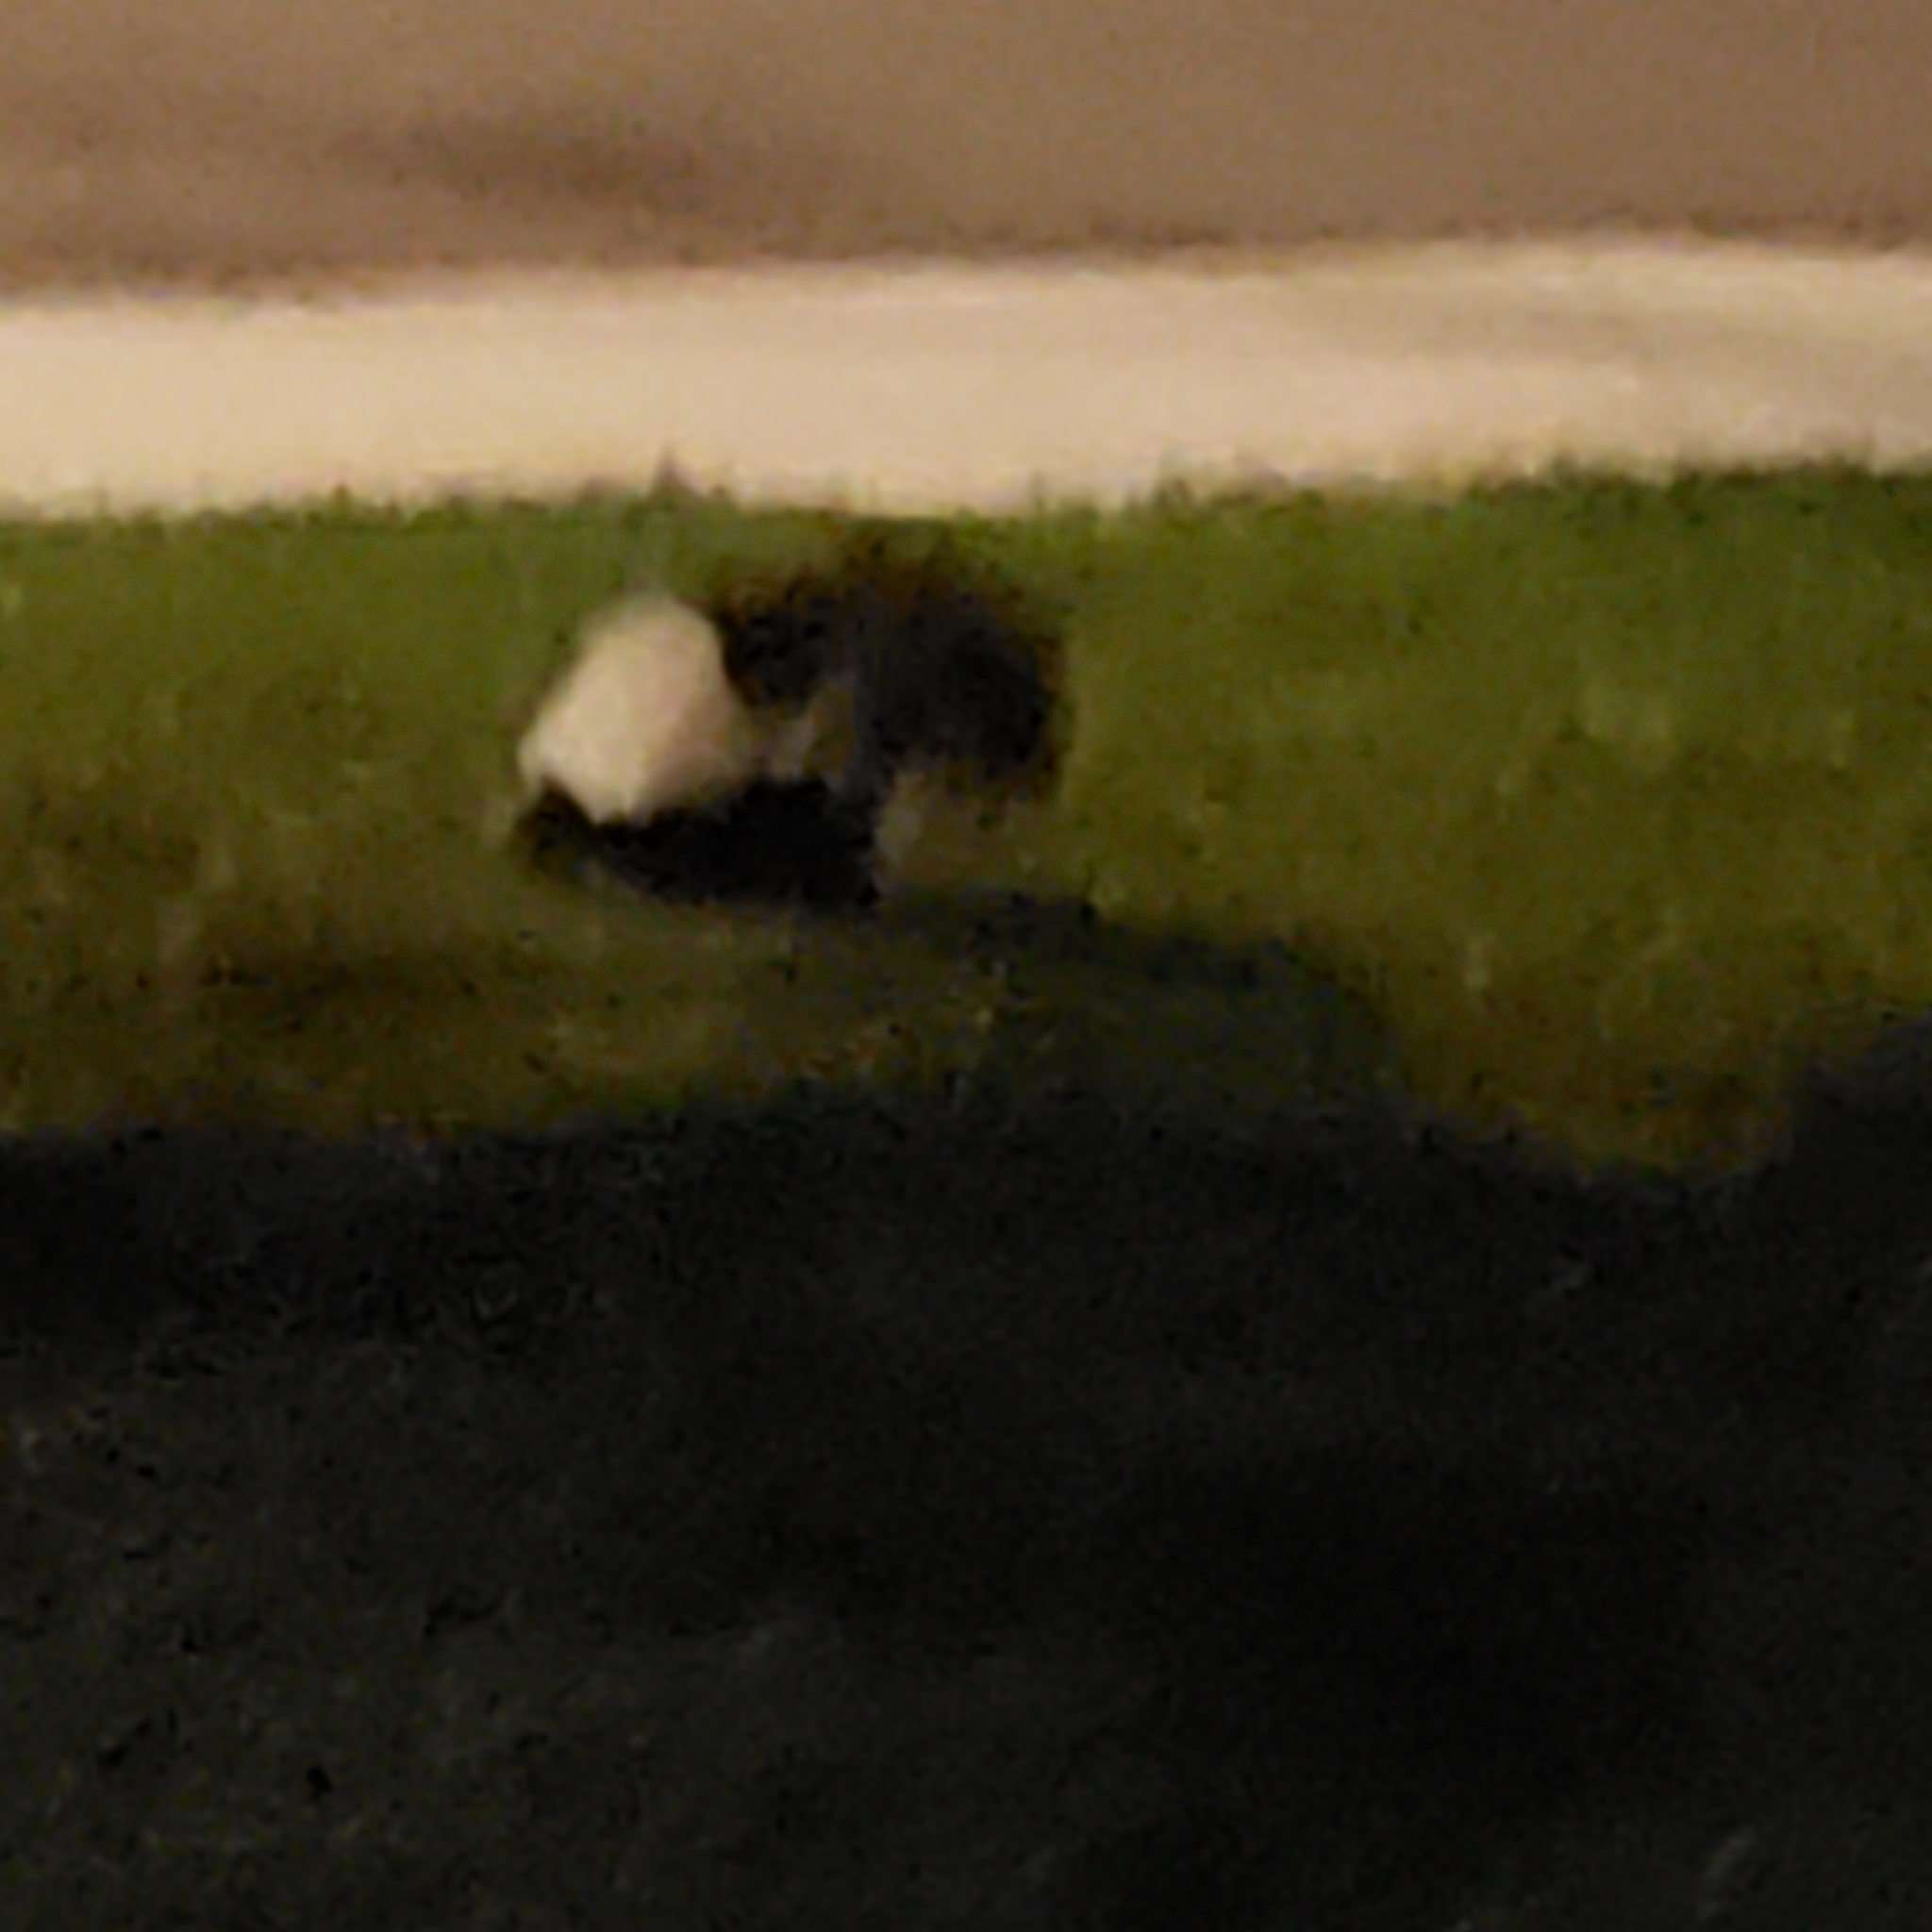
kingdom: Animalia
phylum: Chordata
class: Mammalia
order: Carnivora
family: Mephitidae
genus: Mephitis
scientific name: Mephitis mephitis
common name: Striped skunk
